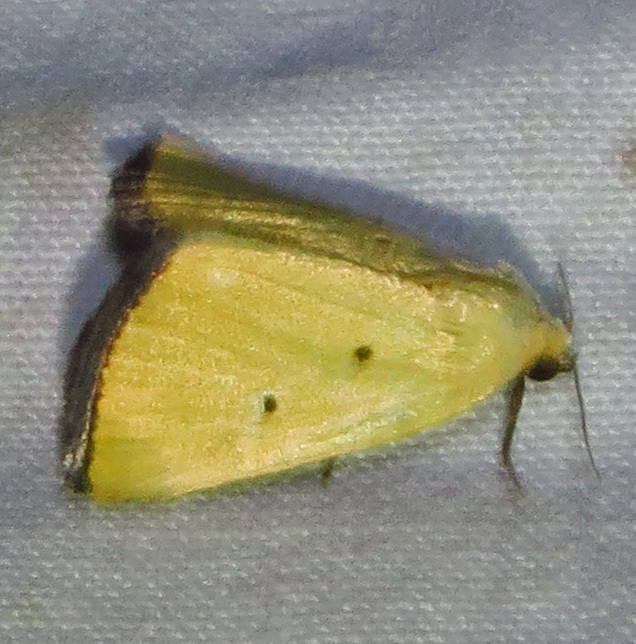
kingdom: Animalia
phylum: Arthropoda
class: Insecta
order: Lepidoptera
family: Noctuidae
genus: Marimatha
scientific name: Marimatha nigrofimbria
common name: Black-bordered lemon moth
